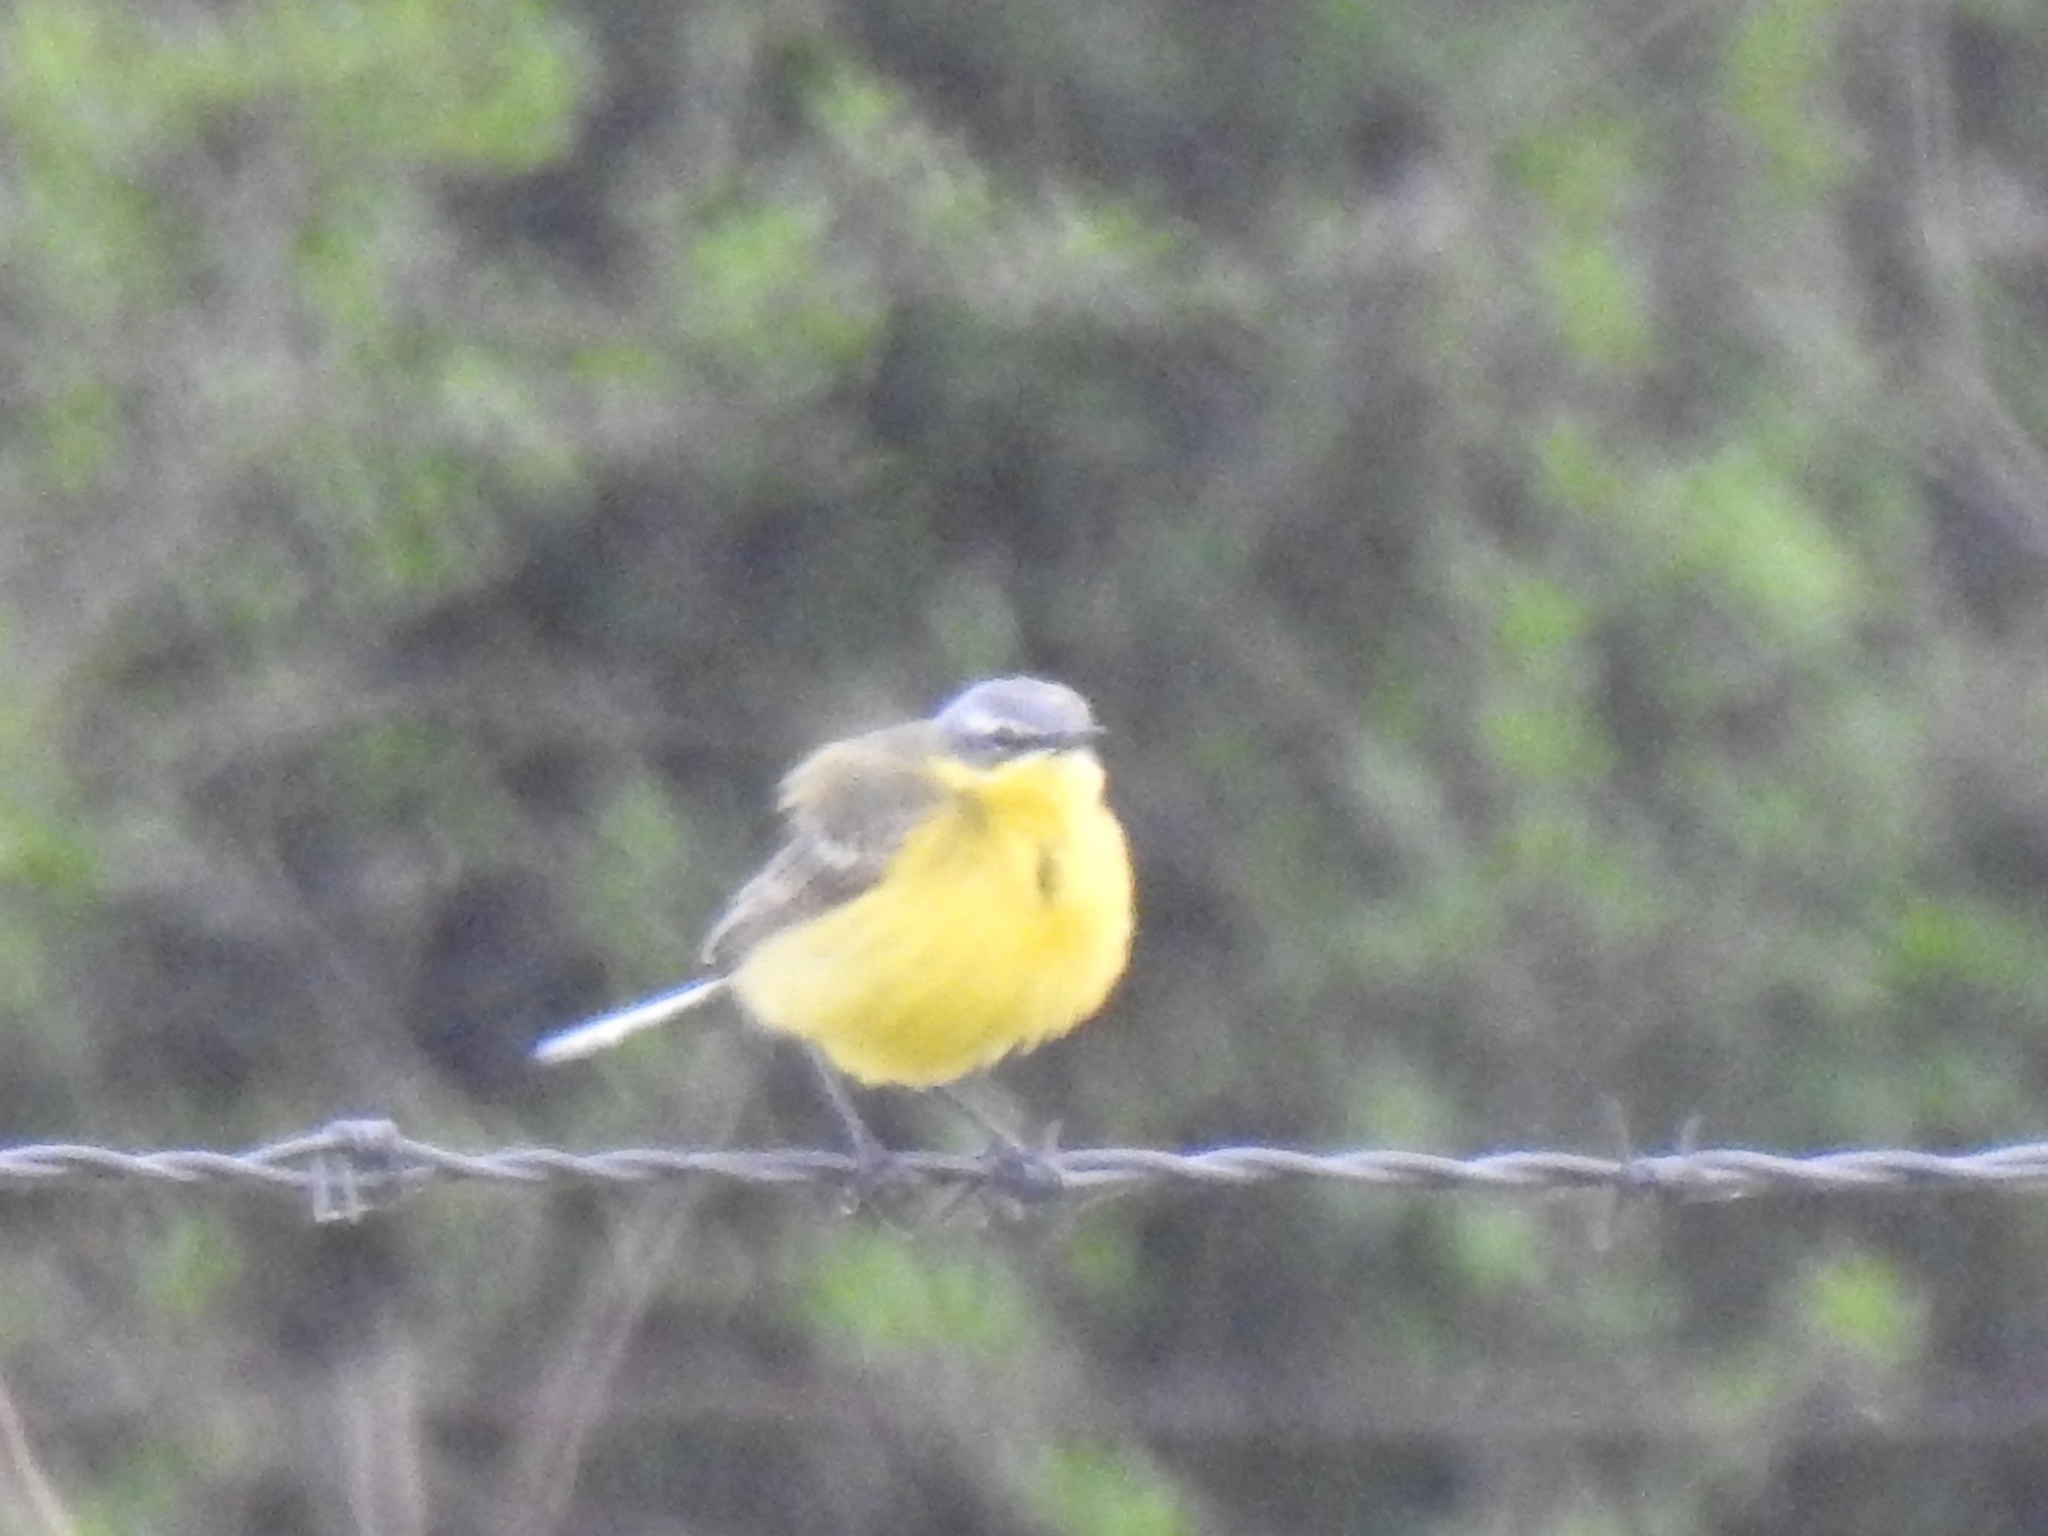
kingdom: Animalia
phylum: Chordata
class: Aves
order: Passeriformes
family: Motacillidae
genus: Motacilla
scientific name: Motacilla flava
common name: Western yellow wagtail
